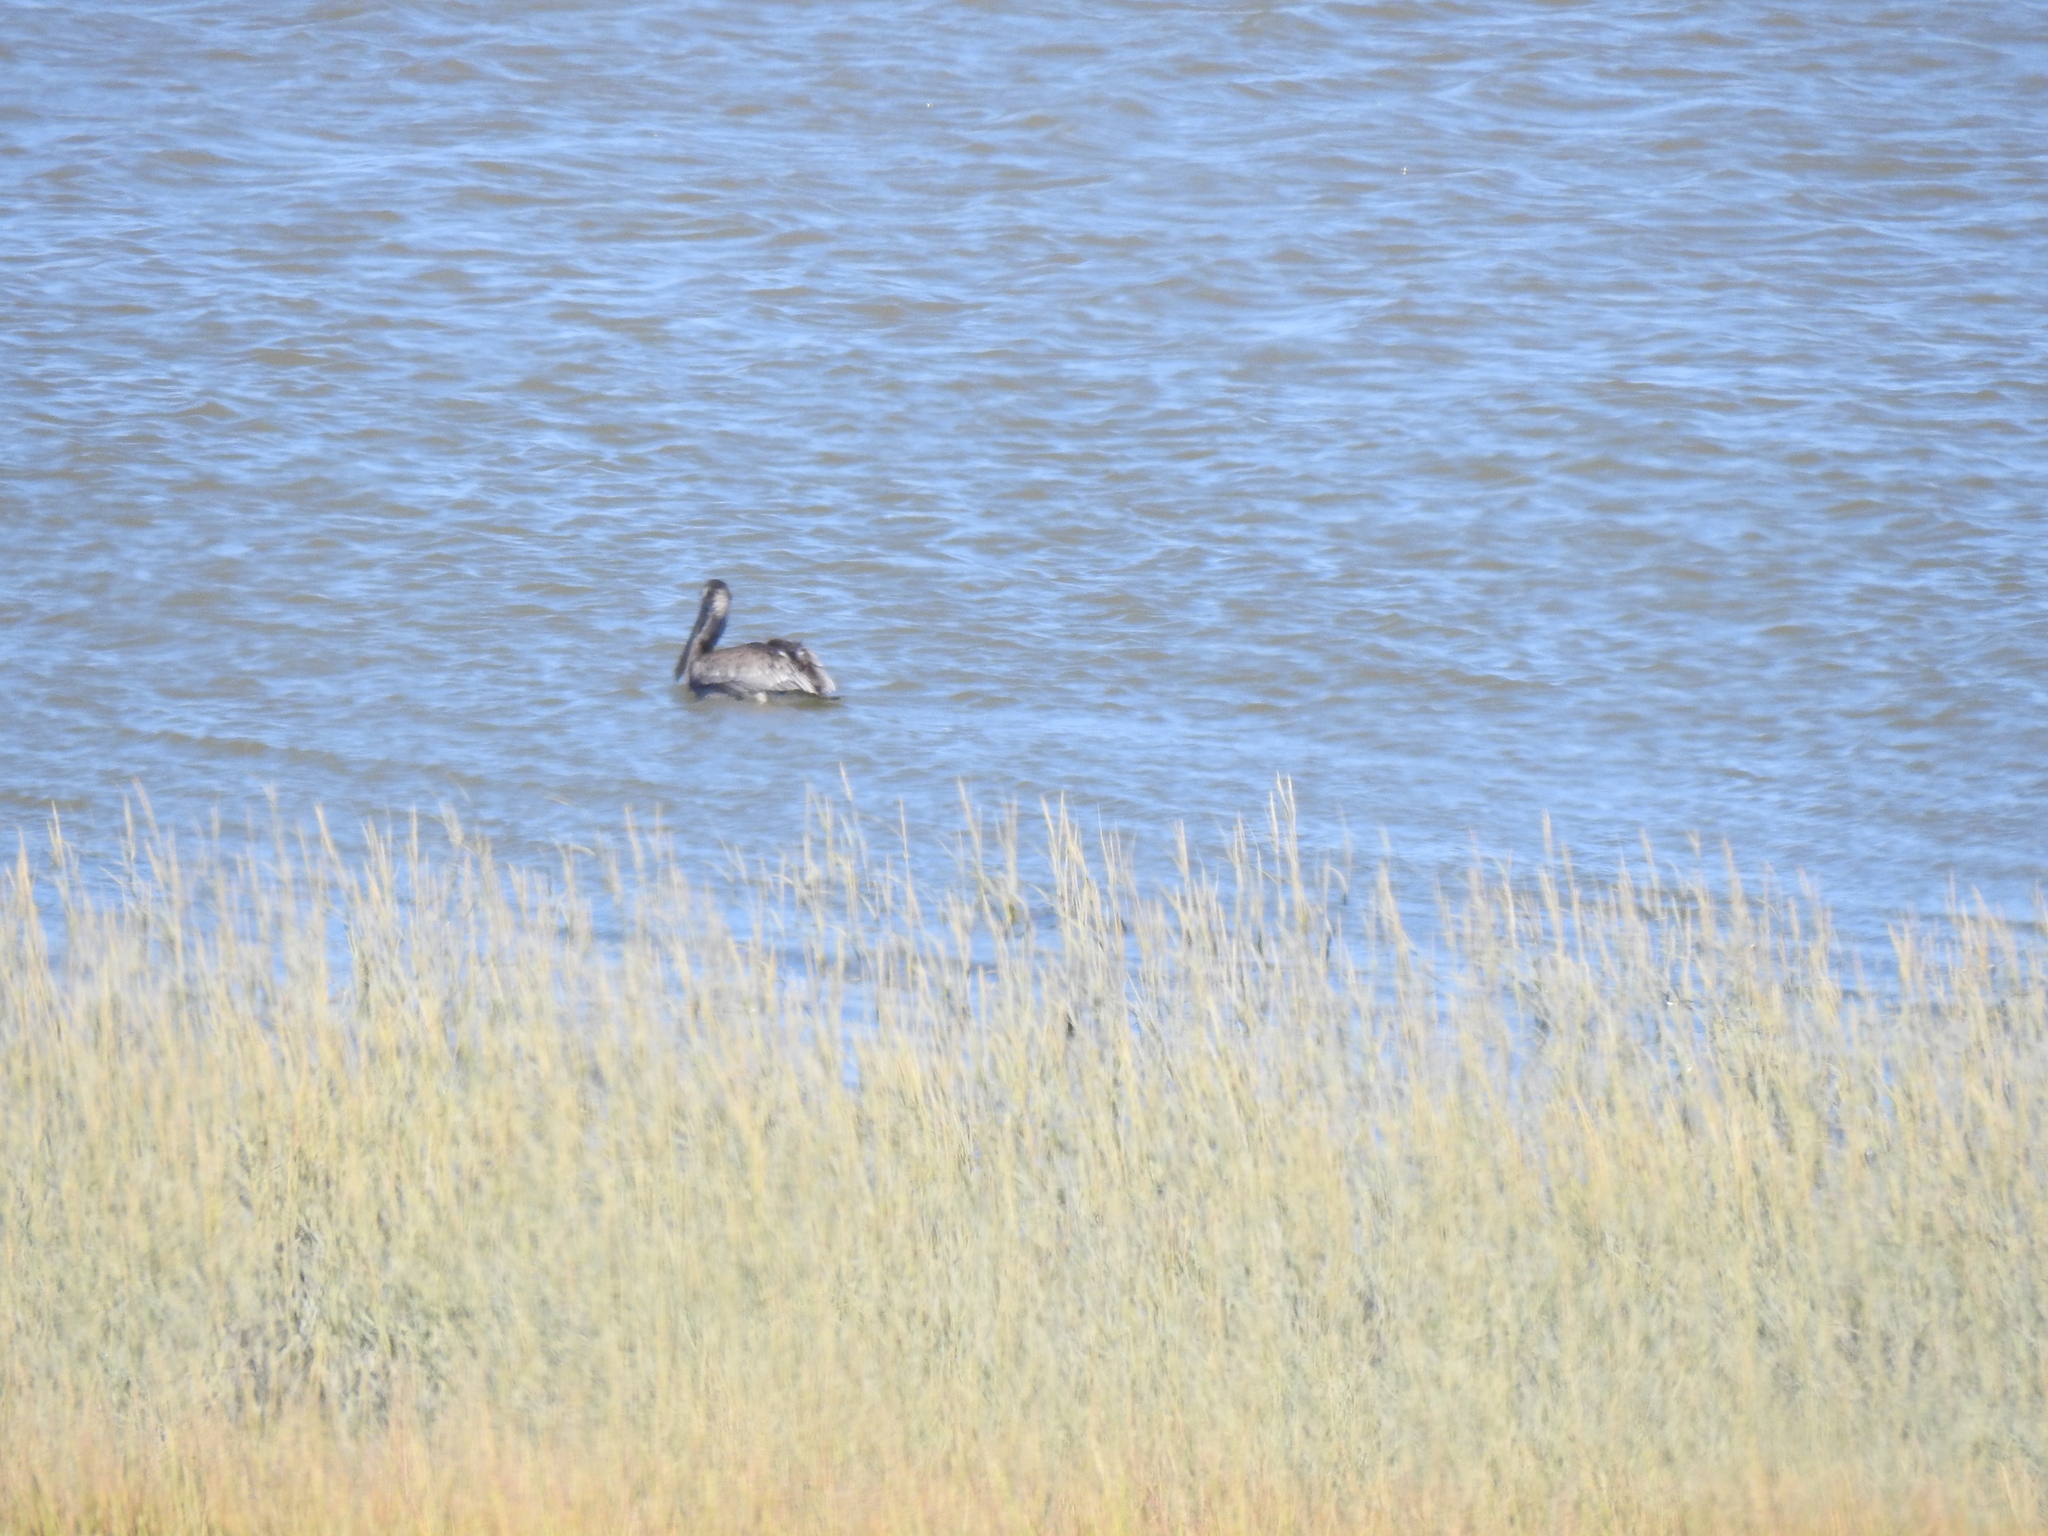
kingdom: Animalia
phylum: Chordata
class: Aves
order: Pelecaniformes
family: Pelecanidae
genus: Pelecanus
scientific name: Pelecanus occidentalis
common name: Brown pelican
